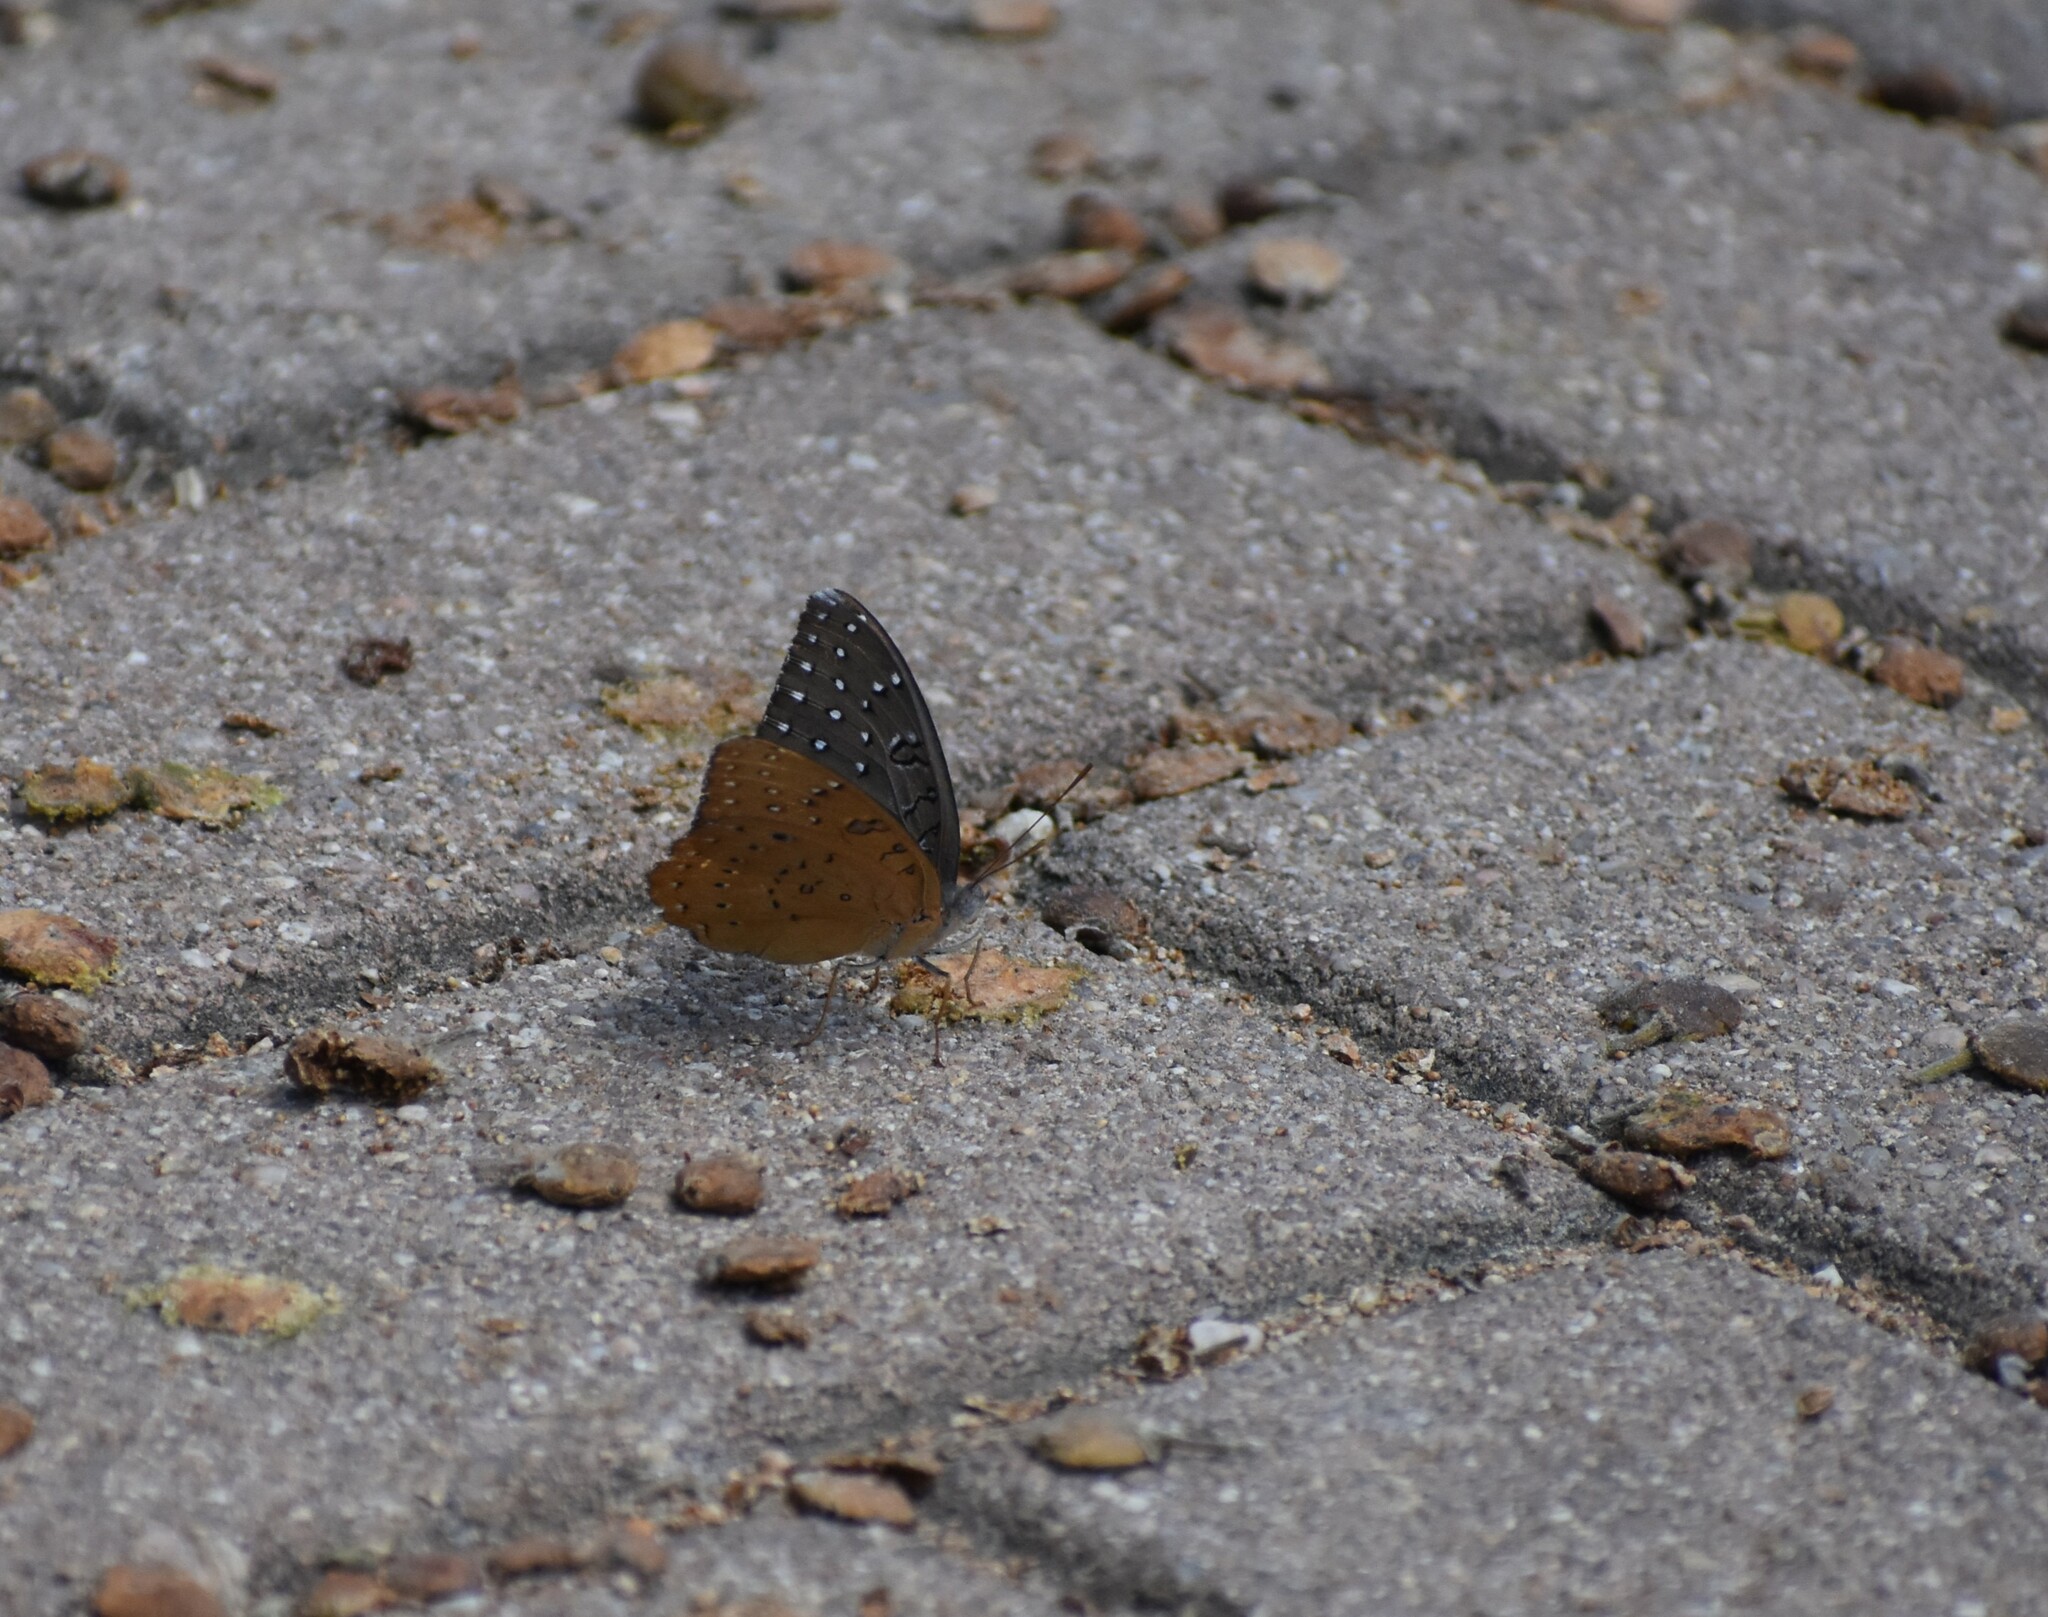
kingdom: Animalia
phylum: Arthropoda
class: Insecta
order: Lepidoptera
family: Nymphalidae
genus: Hamanumida
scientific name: Hamanumida daedalus
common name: Guinea-fowl butterfly
